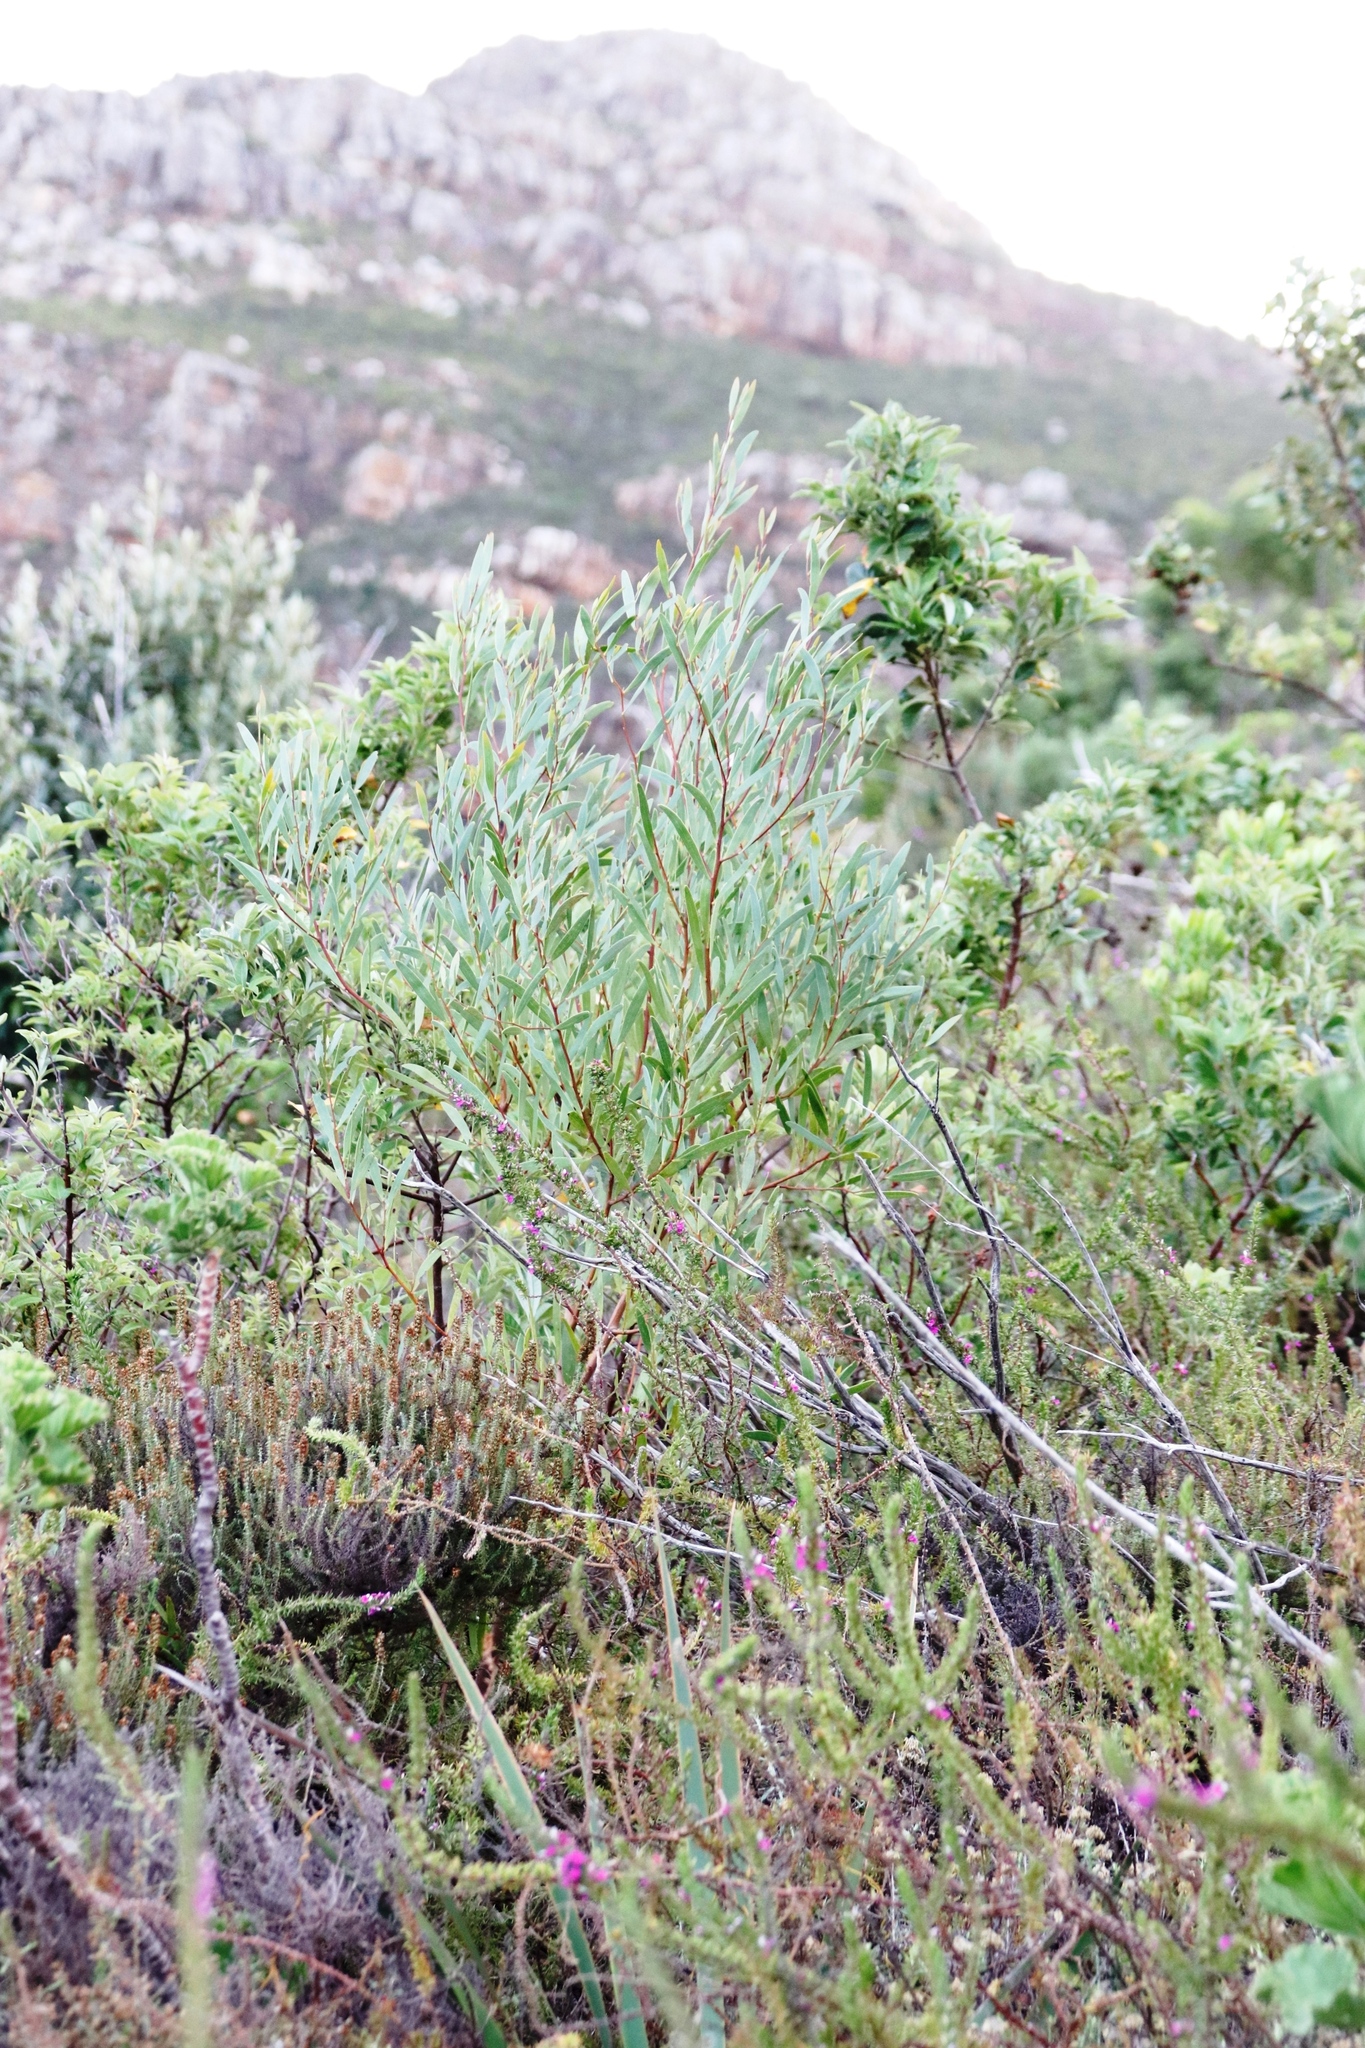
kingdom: Plantae
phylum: Tracheophyta
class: Magnoliopsida
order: Fabales
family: Fabaceae
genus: Acacia
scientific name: Acacia longifolia
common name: Sydney golden wattle
